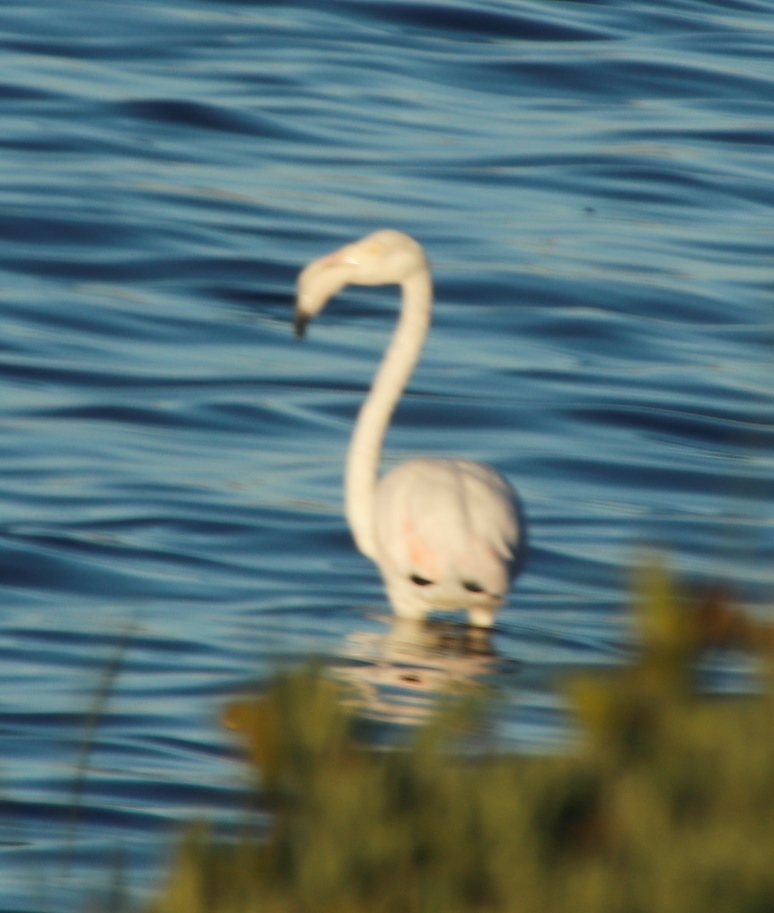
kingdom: Animalia
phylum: Chordata
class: Aves
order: Phoenicopteriformes
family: Phoenicopteridae
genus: Phoenicopterus
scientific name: Phoenicopterus roseus
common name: Greater flamingo
